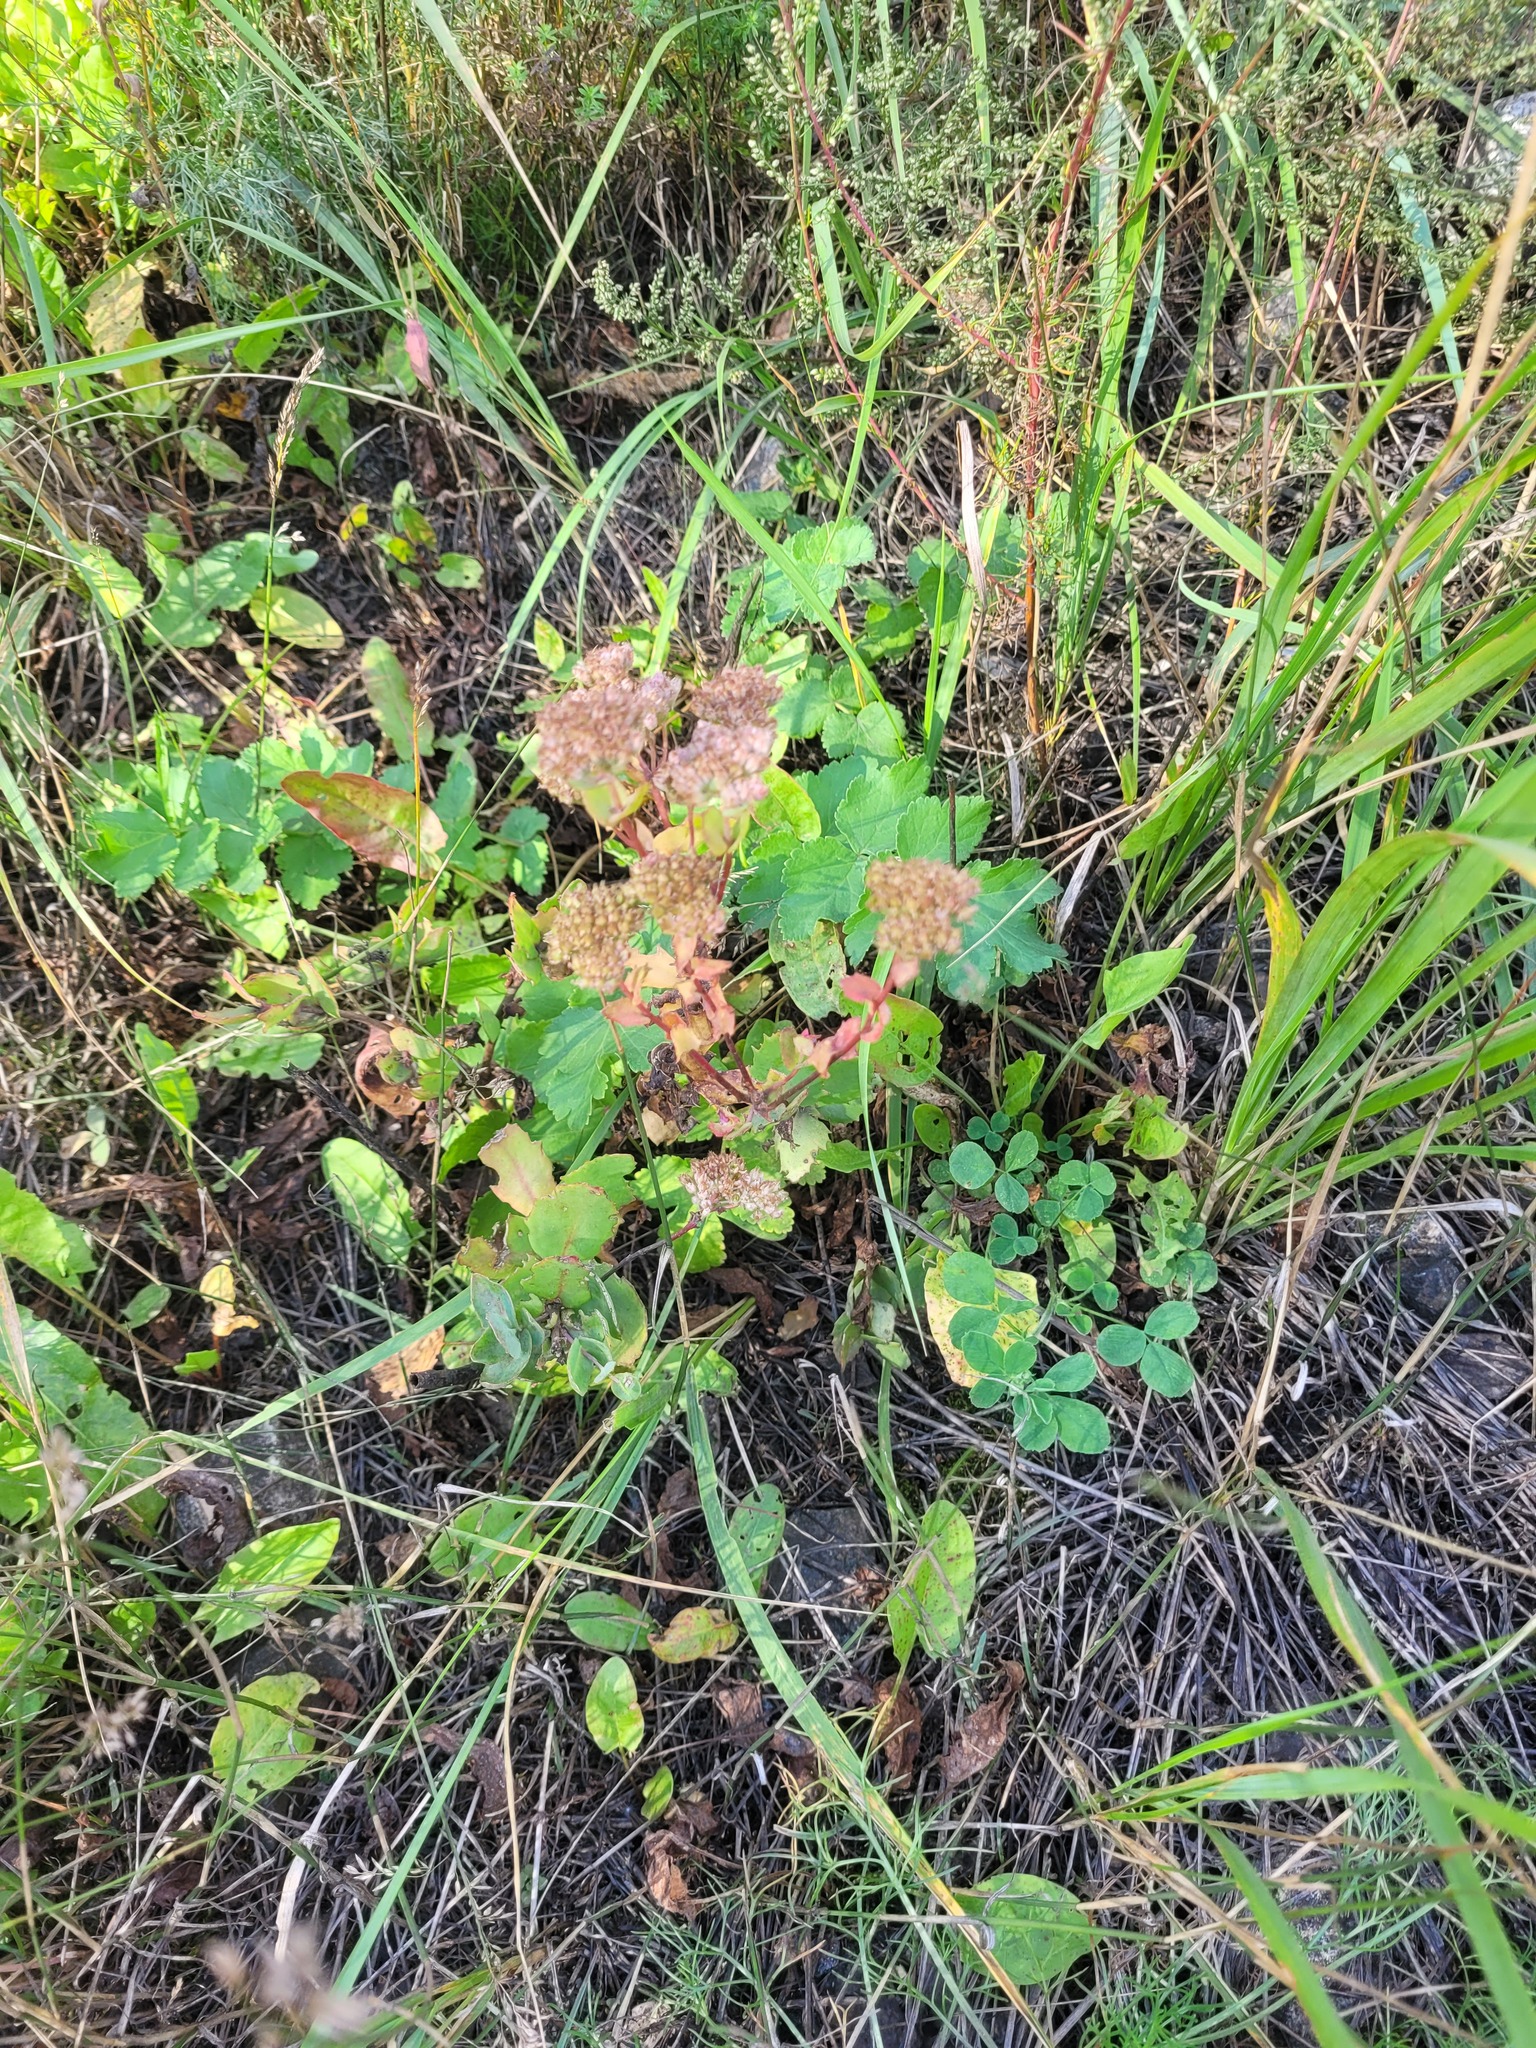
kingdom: Plantae
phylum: Tracheophyta
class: Magnoliopsida
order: Saxifragales
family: Crassulaceae
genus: Hylotelephium
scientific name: Hylotelephium maximum
